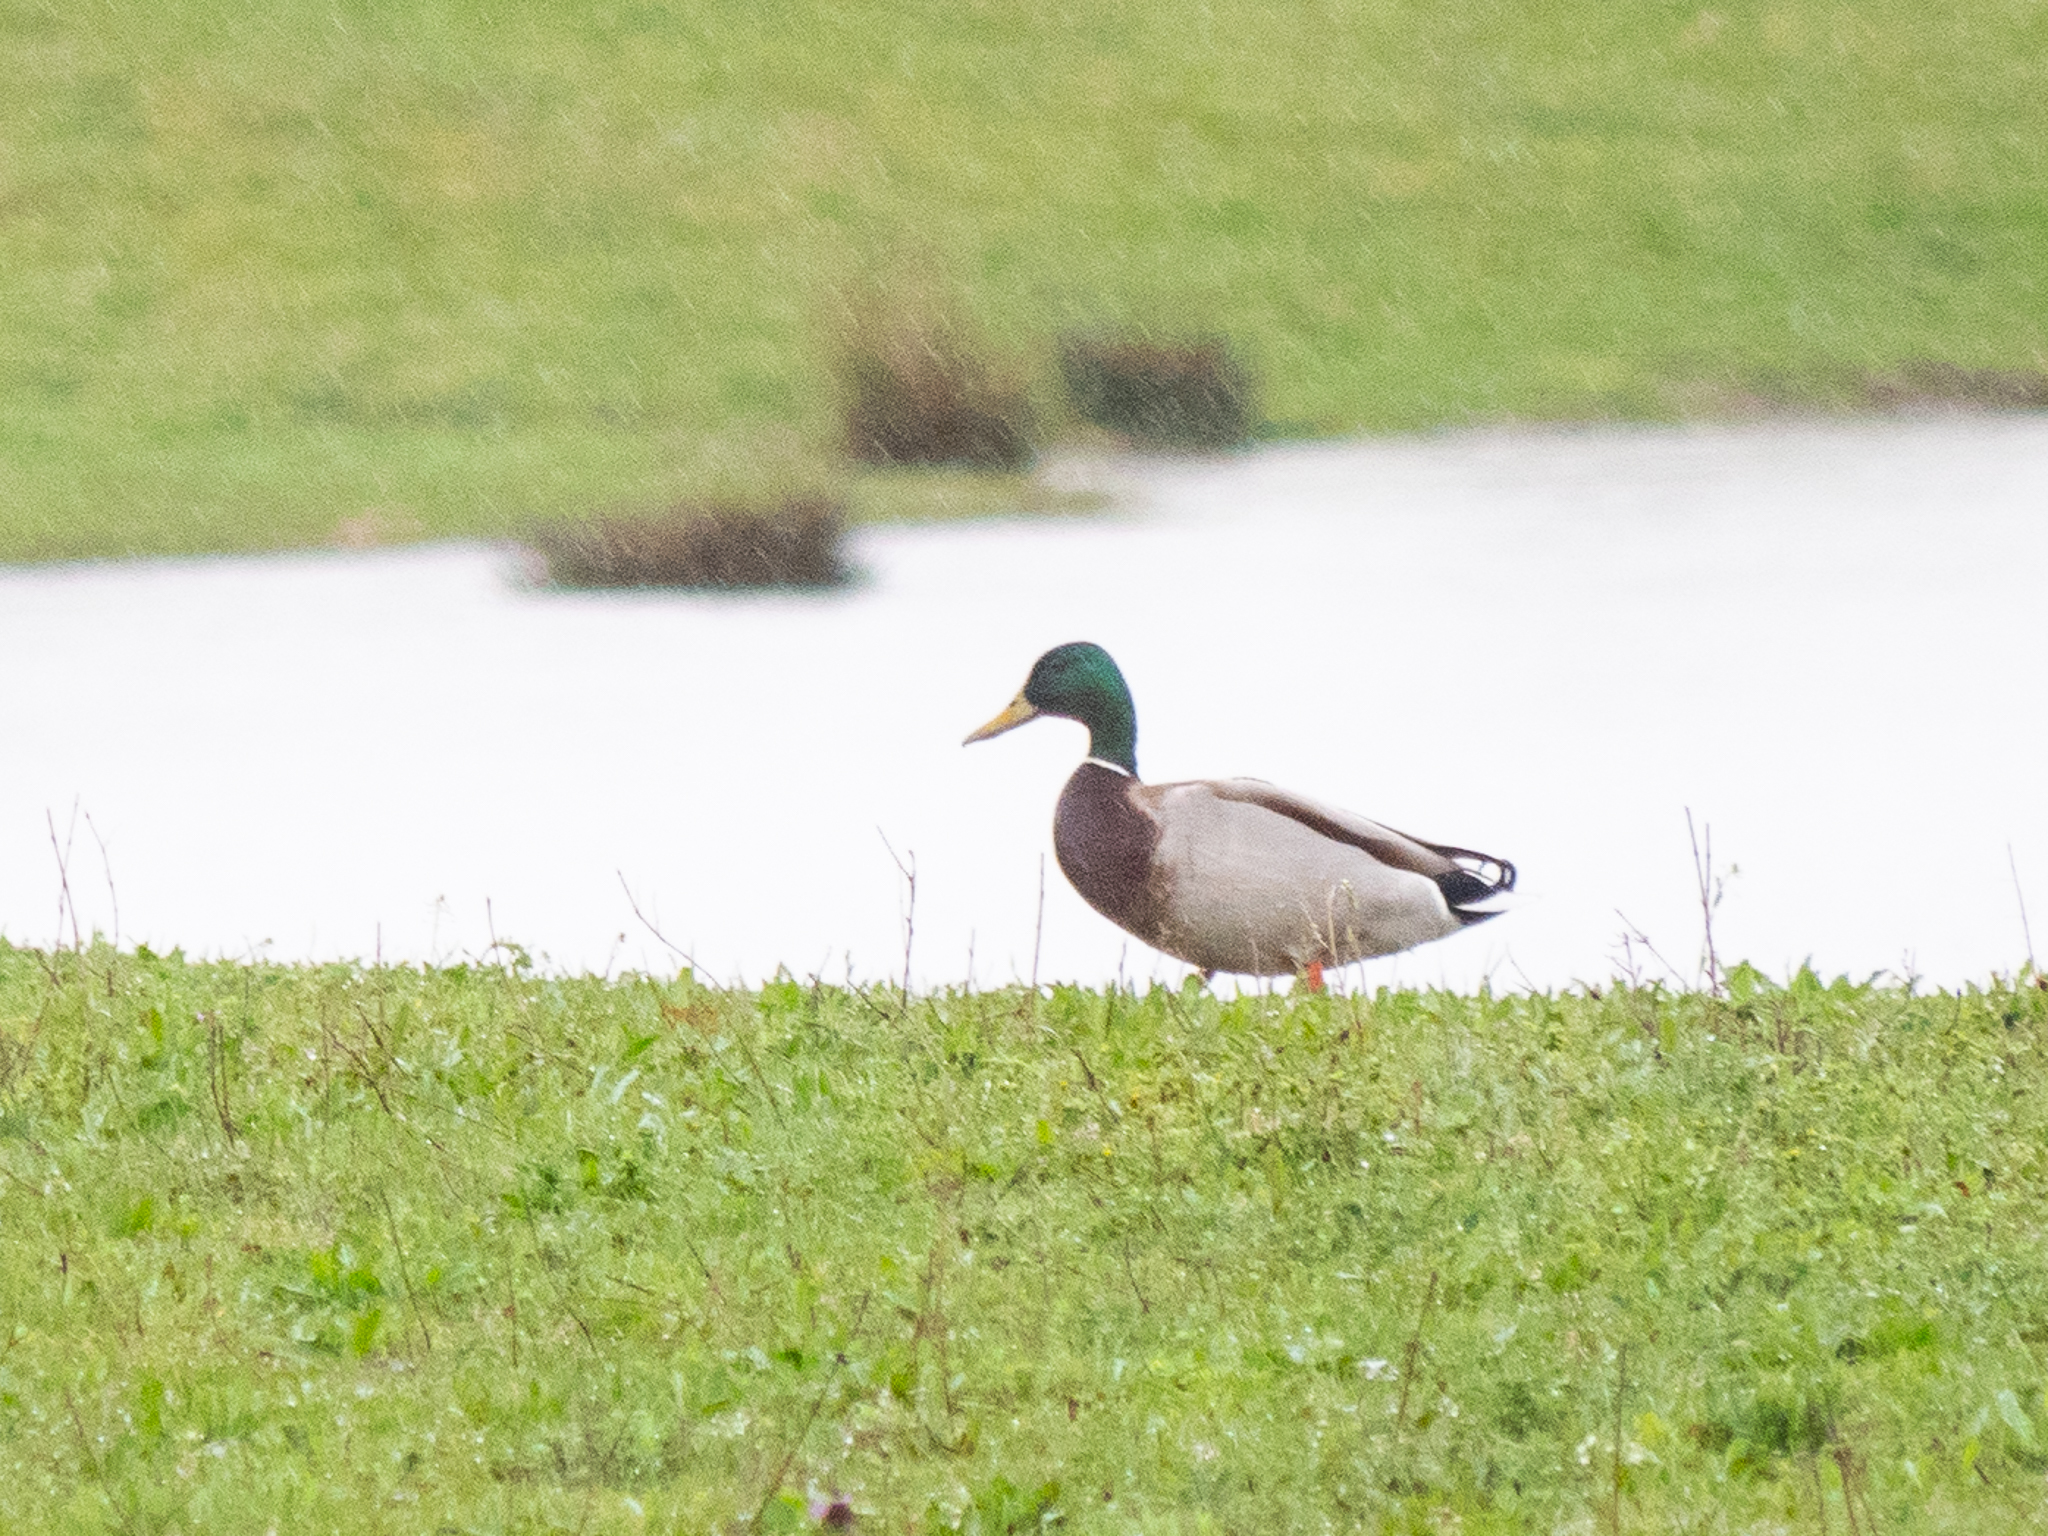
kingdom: Animalia
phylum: Chordata
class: Aves
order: Anseriformes
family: Anatidae
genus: Anas
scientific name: Anas platyrhynchos
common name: Mallard
